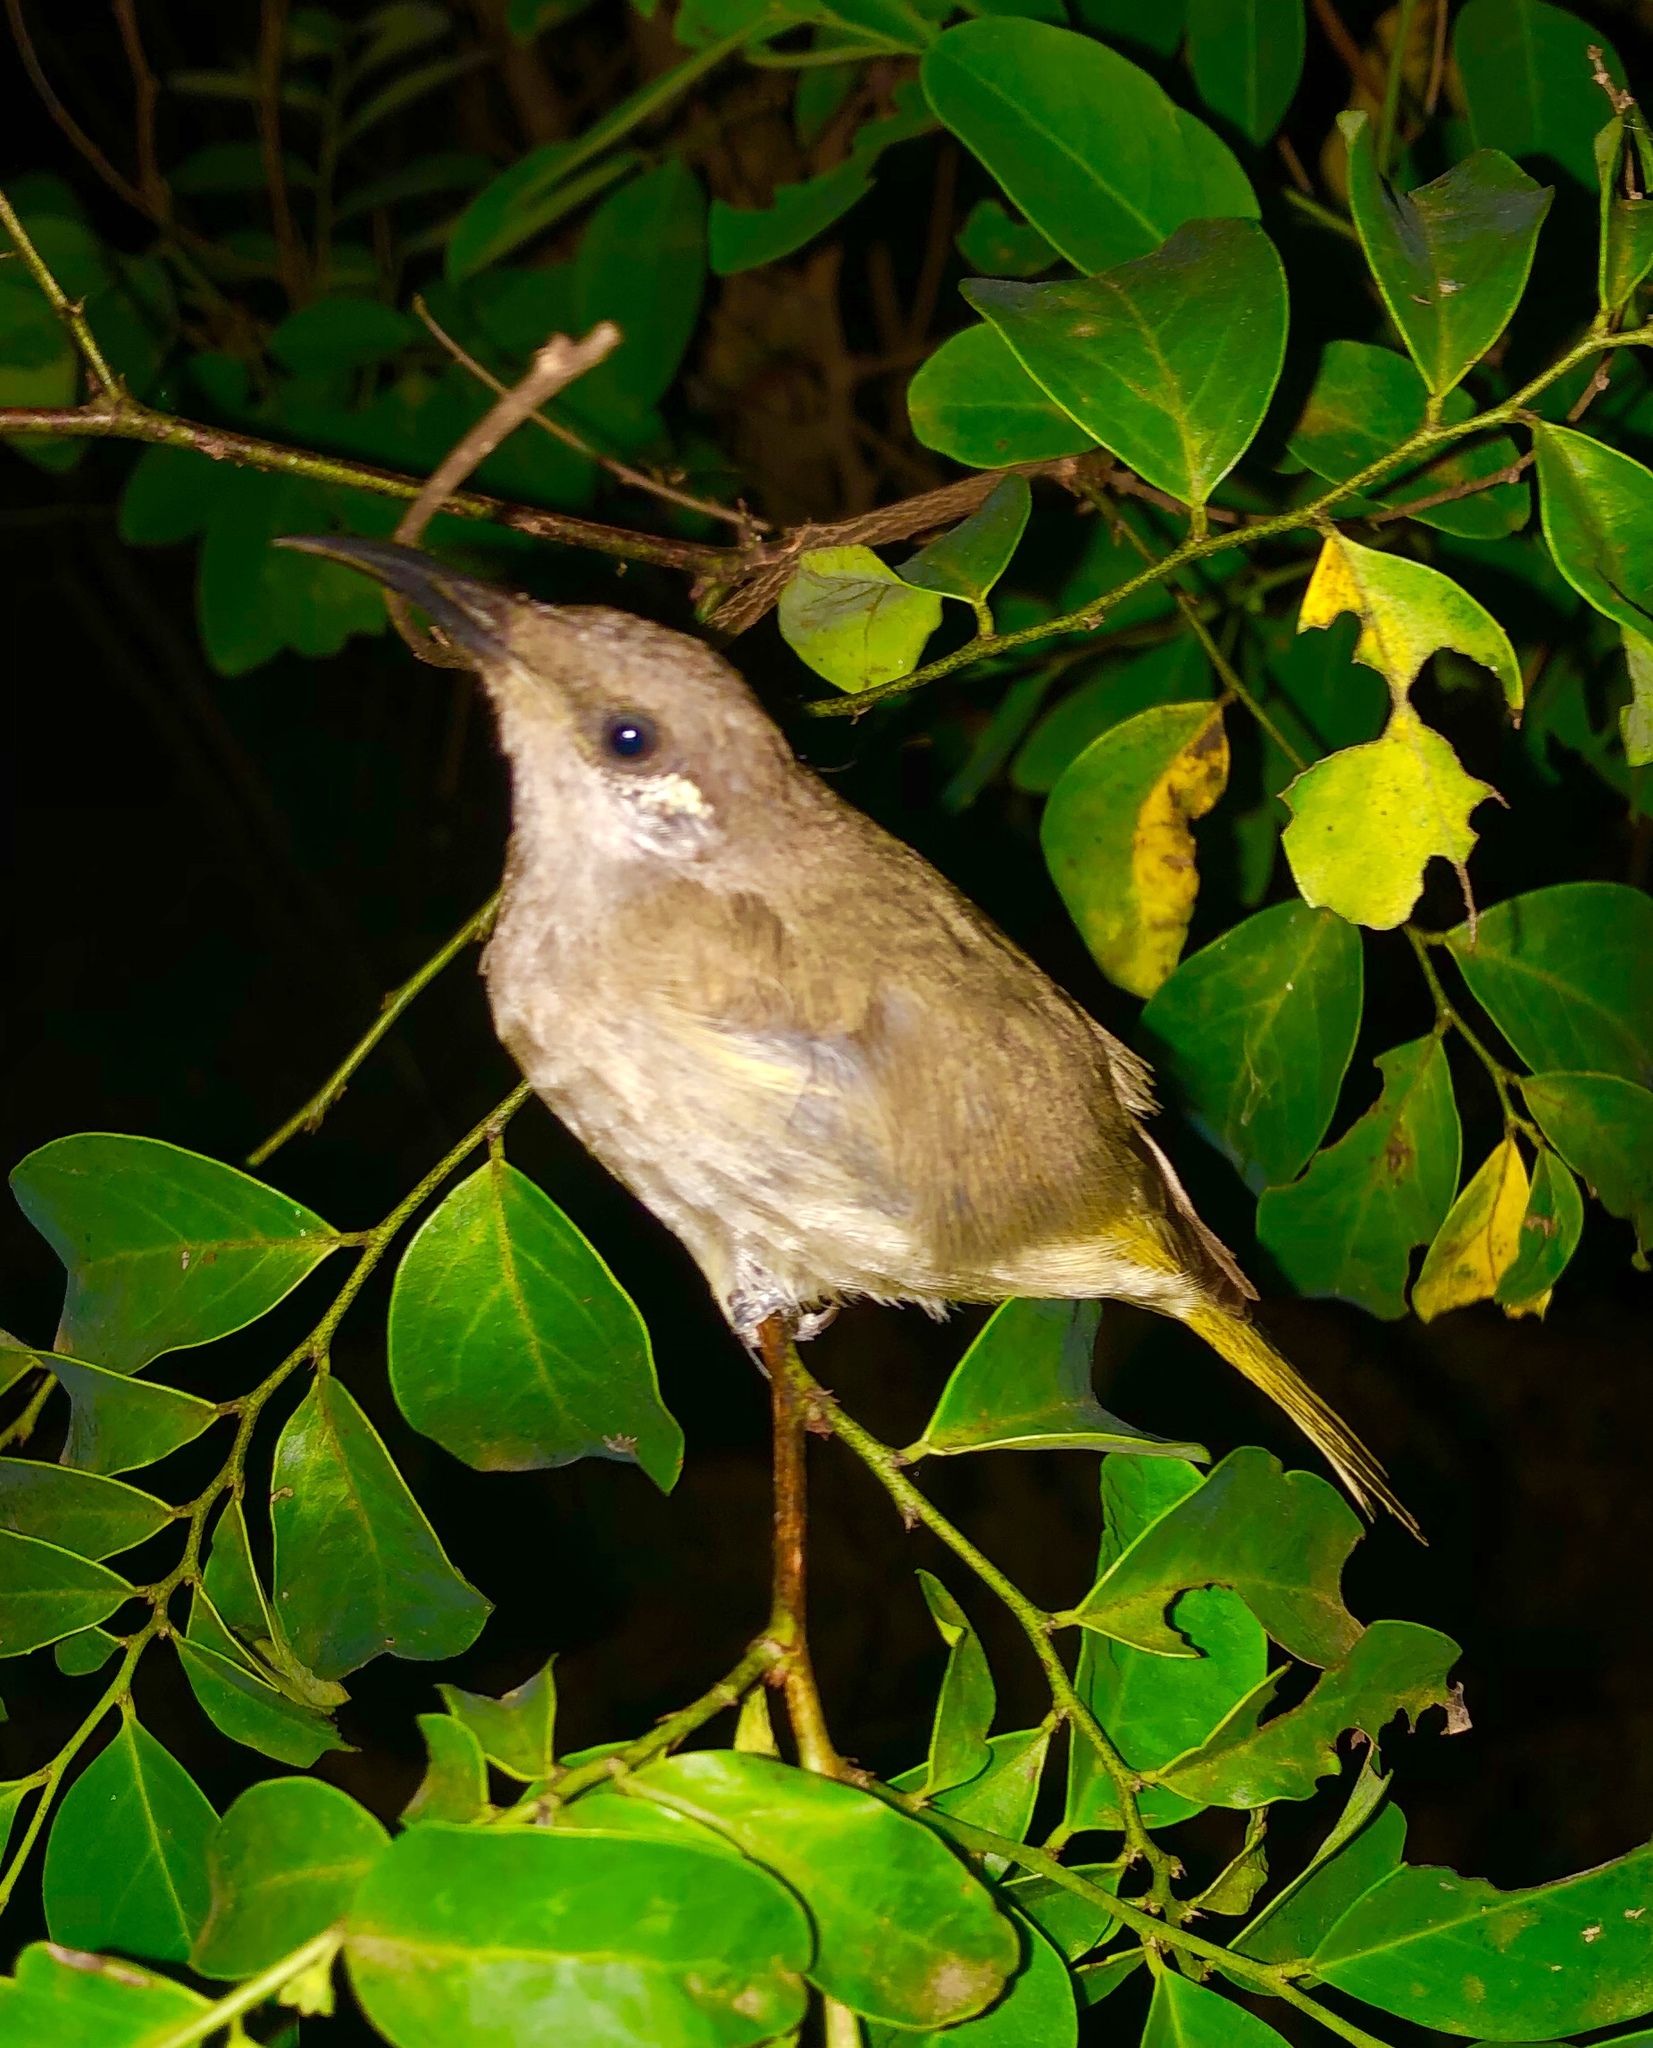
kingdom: Animalia
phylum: Chordata
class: Aves
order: Passeriformes
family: Meliphagidae
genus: Lichmera
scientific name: Lichmera indistincta
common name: Brown honeyeater
